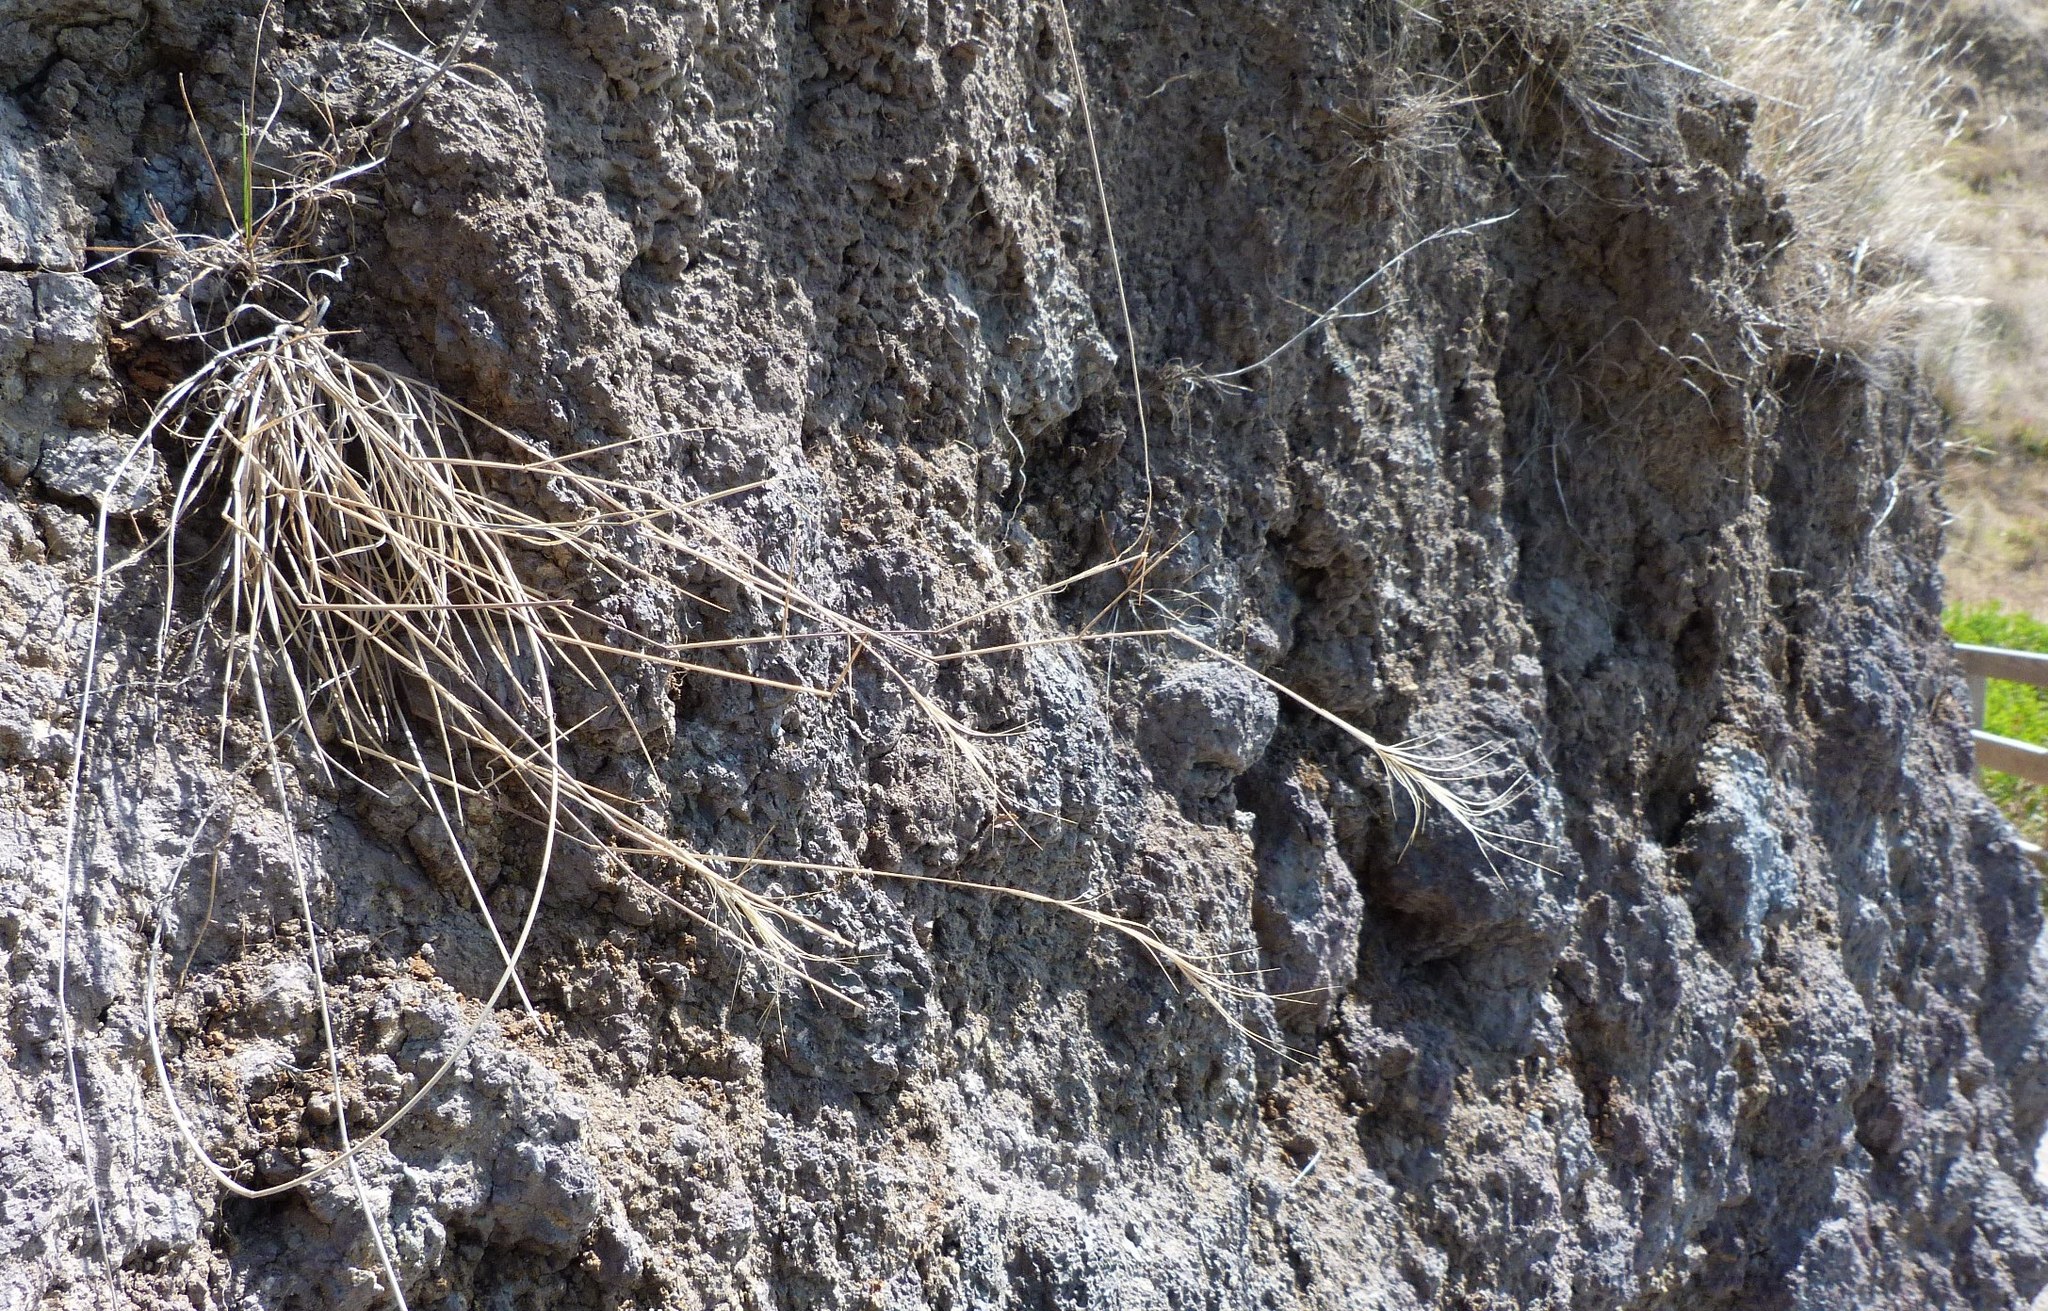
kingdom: Plantae
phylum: Tracheophyta
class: Liliopsida
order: Poales
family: Poaceae
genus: Anthosachne
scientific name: Anthosachne solandri
